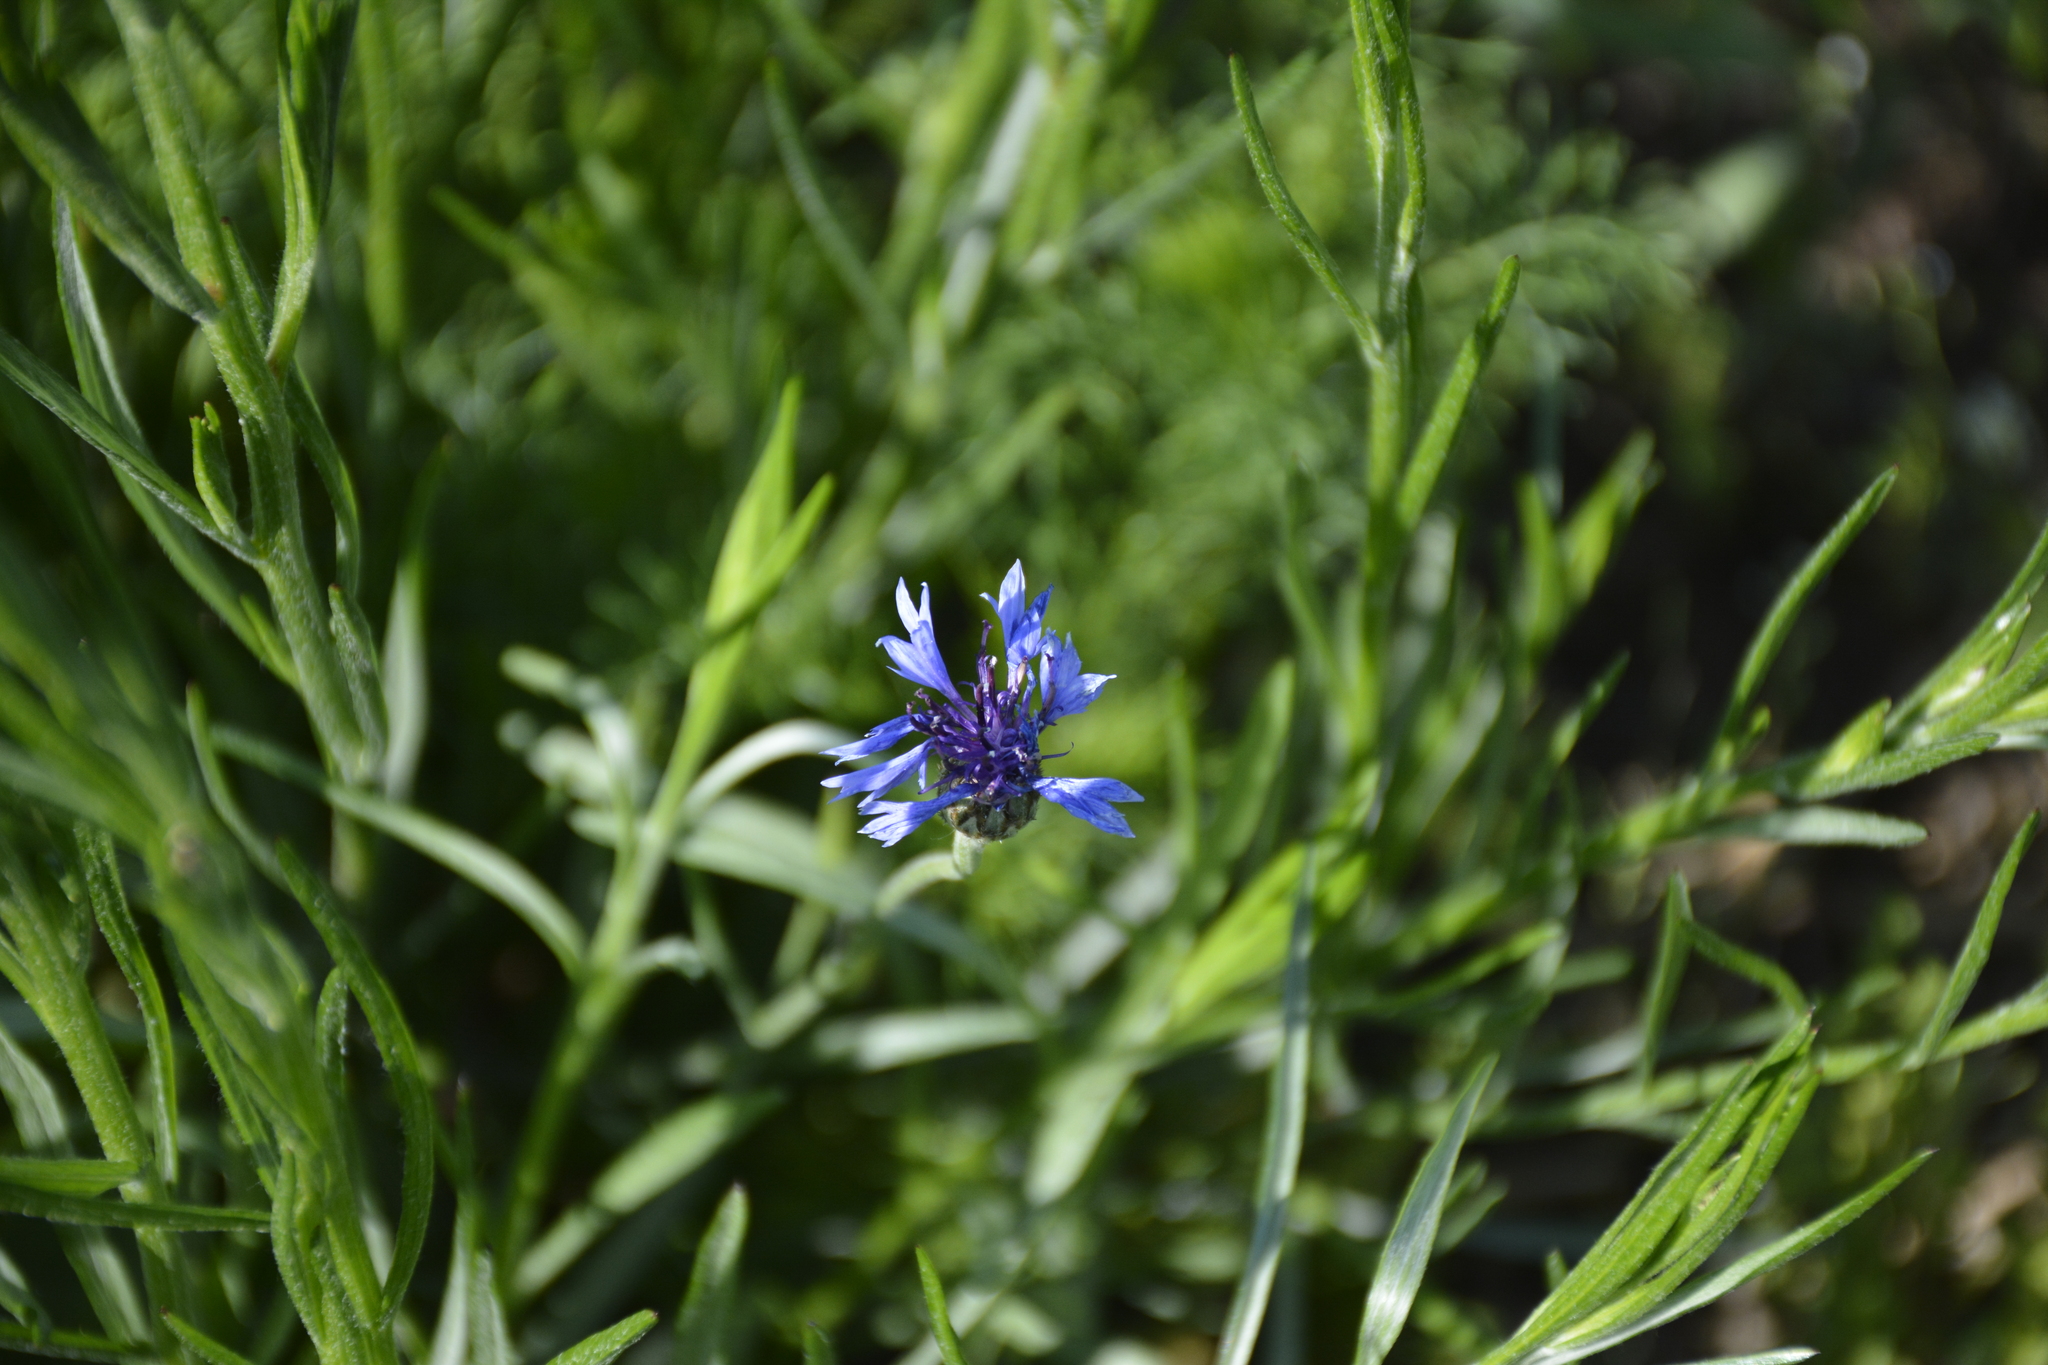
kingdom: Plantae
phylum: Tracheophyta
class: Magnoliopsida
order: Asterales
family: Asteraceae
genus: Centaurea
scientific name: Centaurea cyanus
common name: Cornflower
